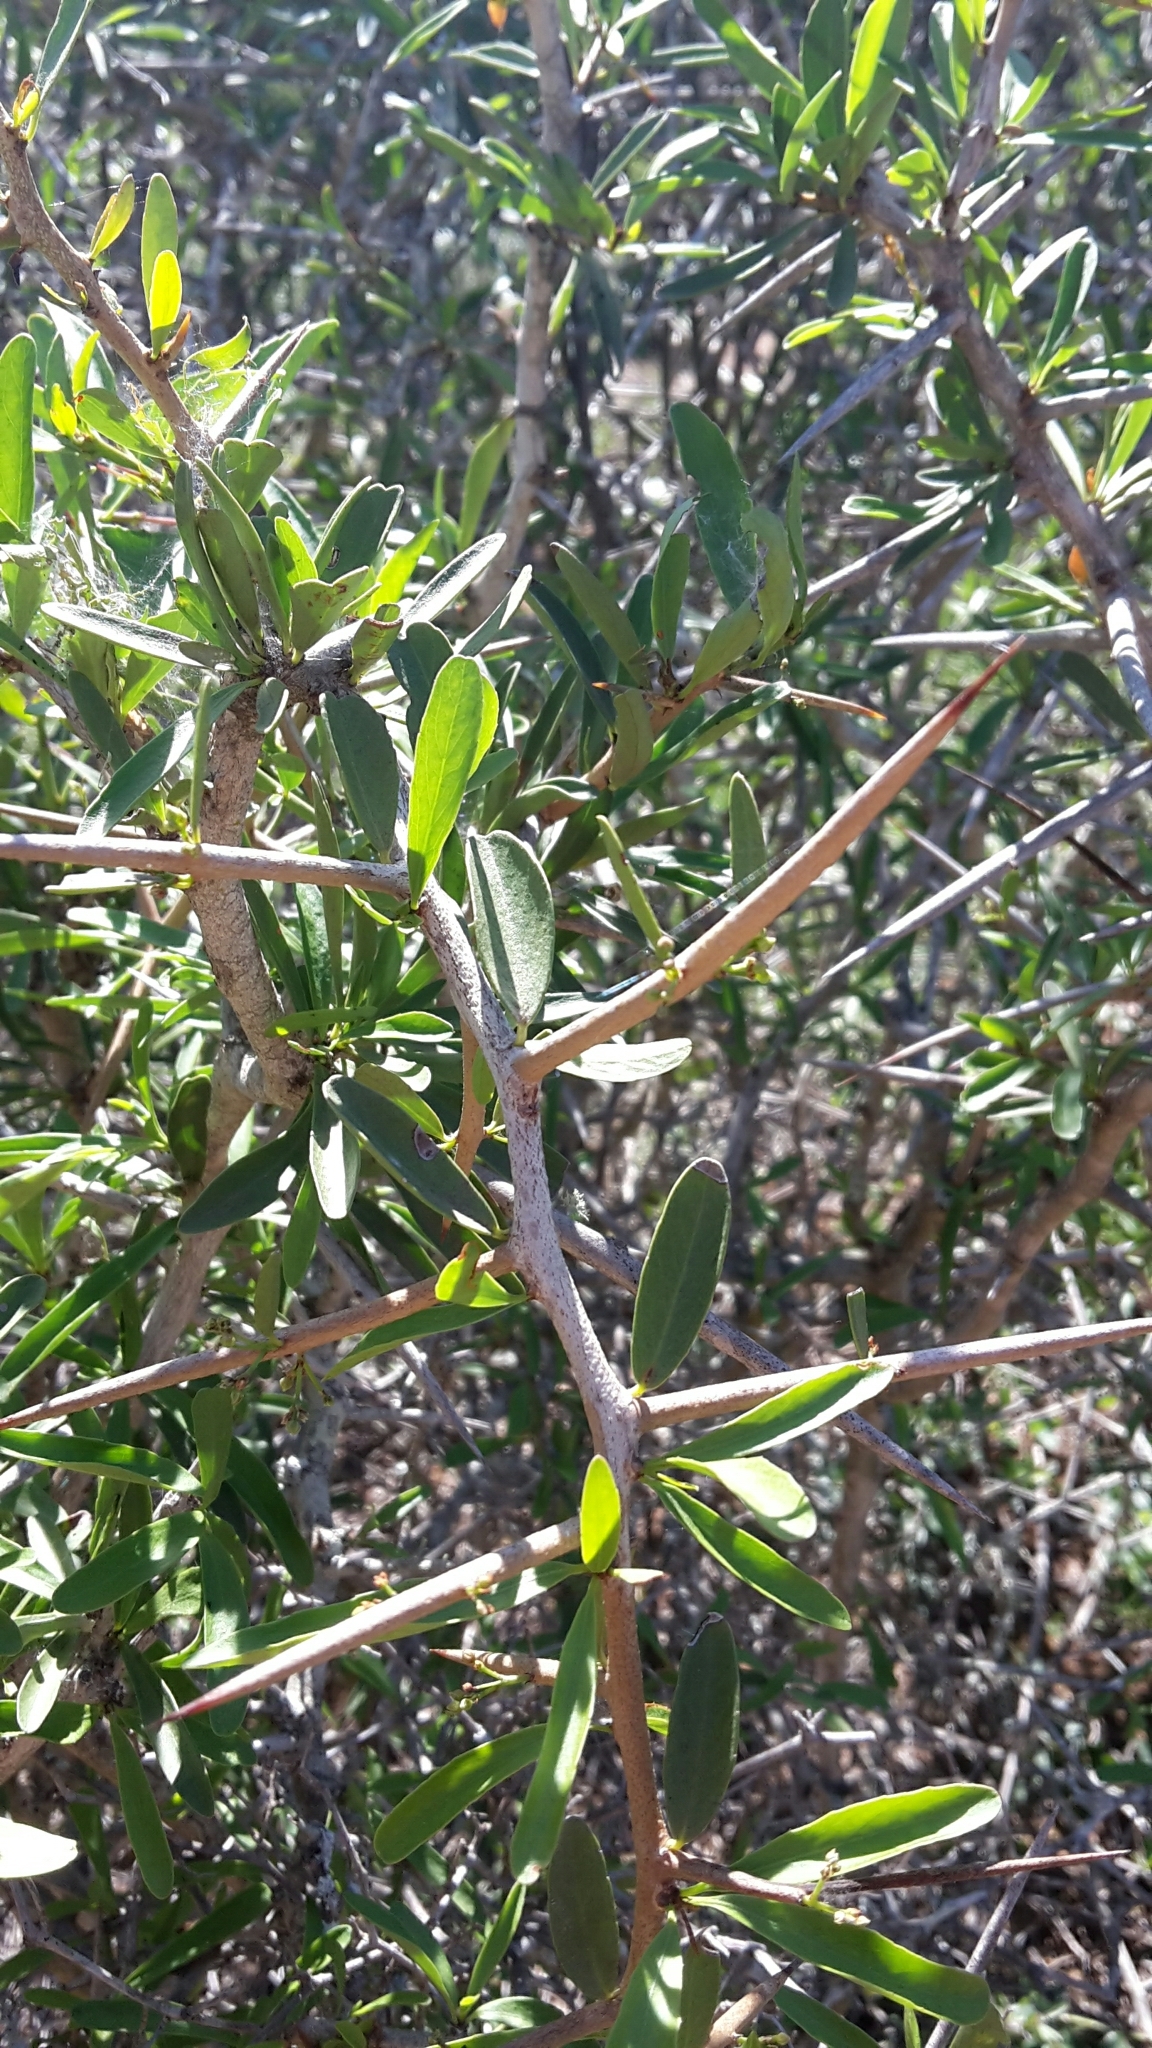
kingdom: Plantae
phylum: Tracheophyta
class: Magnoliopsida
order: Celastrales
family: Celastraceae
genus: Gymnosporia
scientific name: Gymnosporia polyacantha
